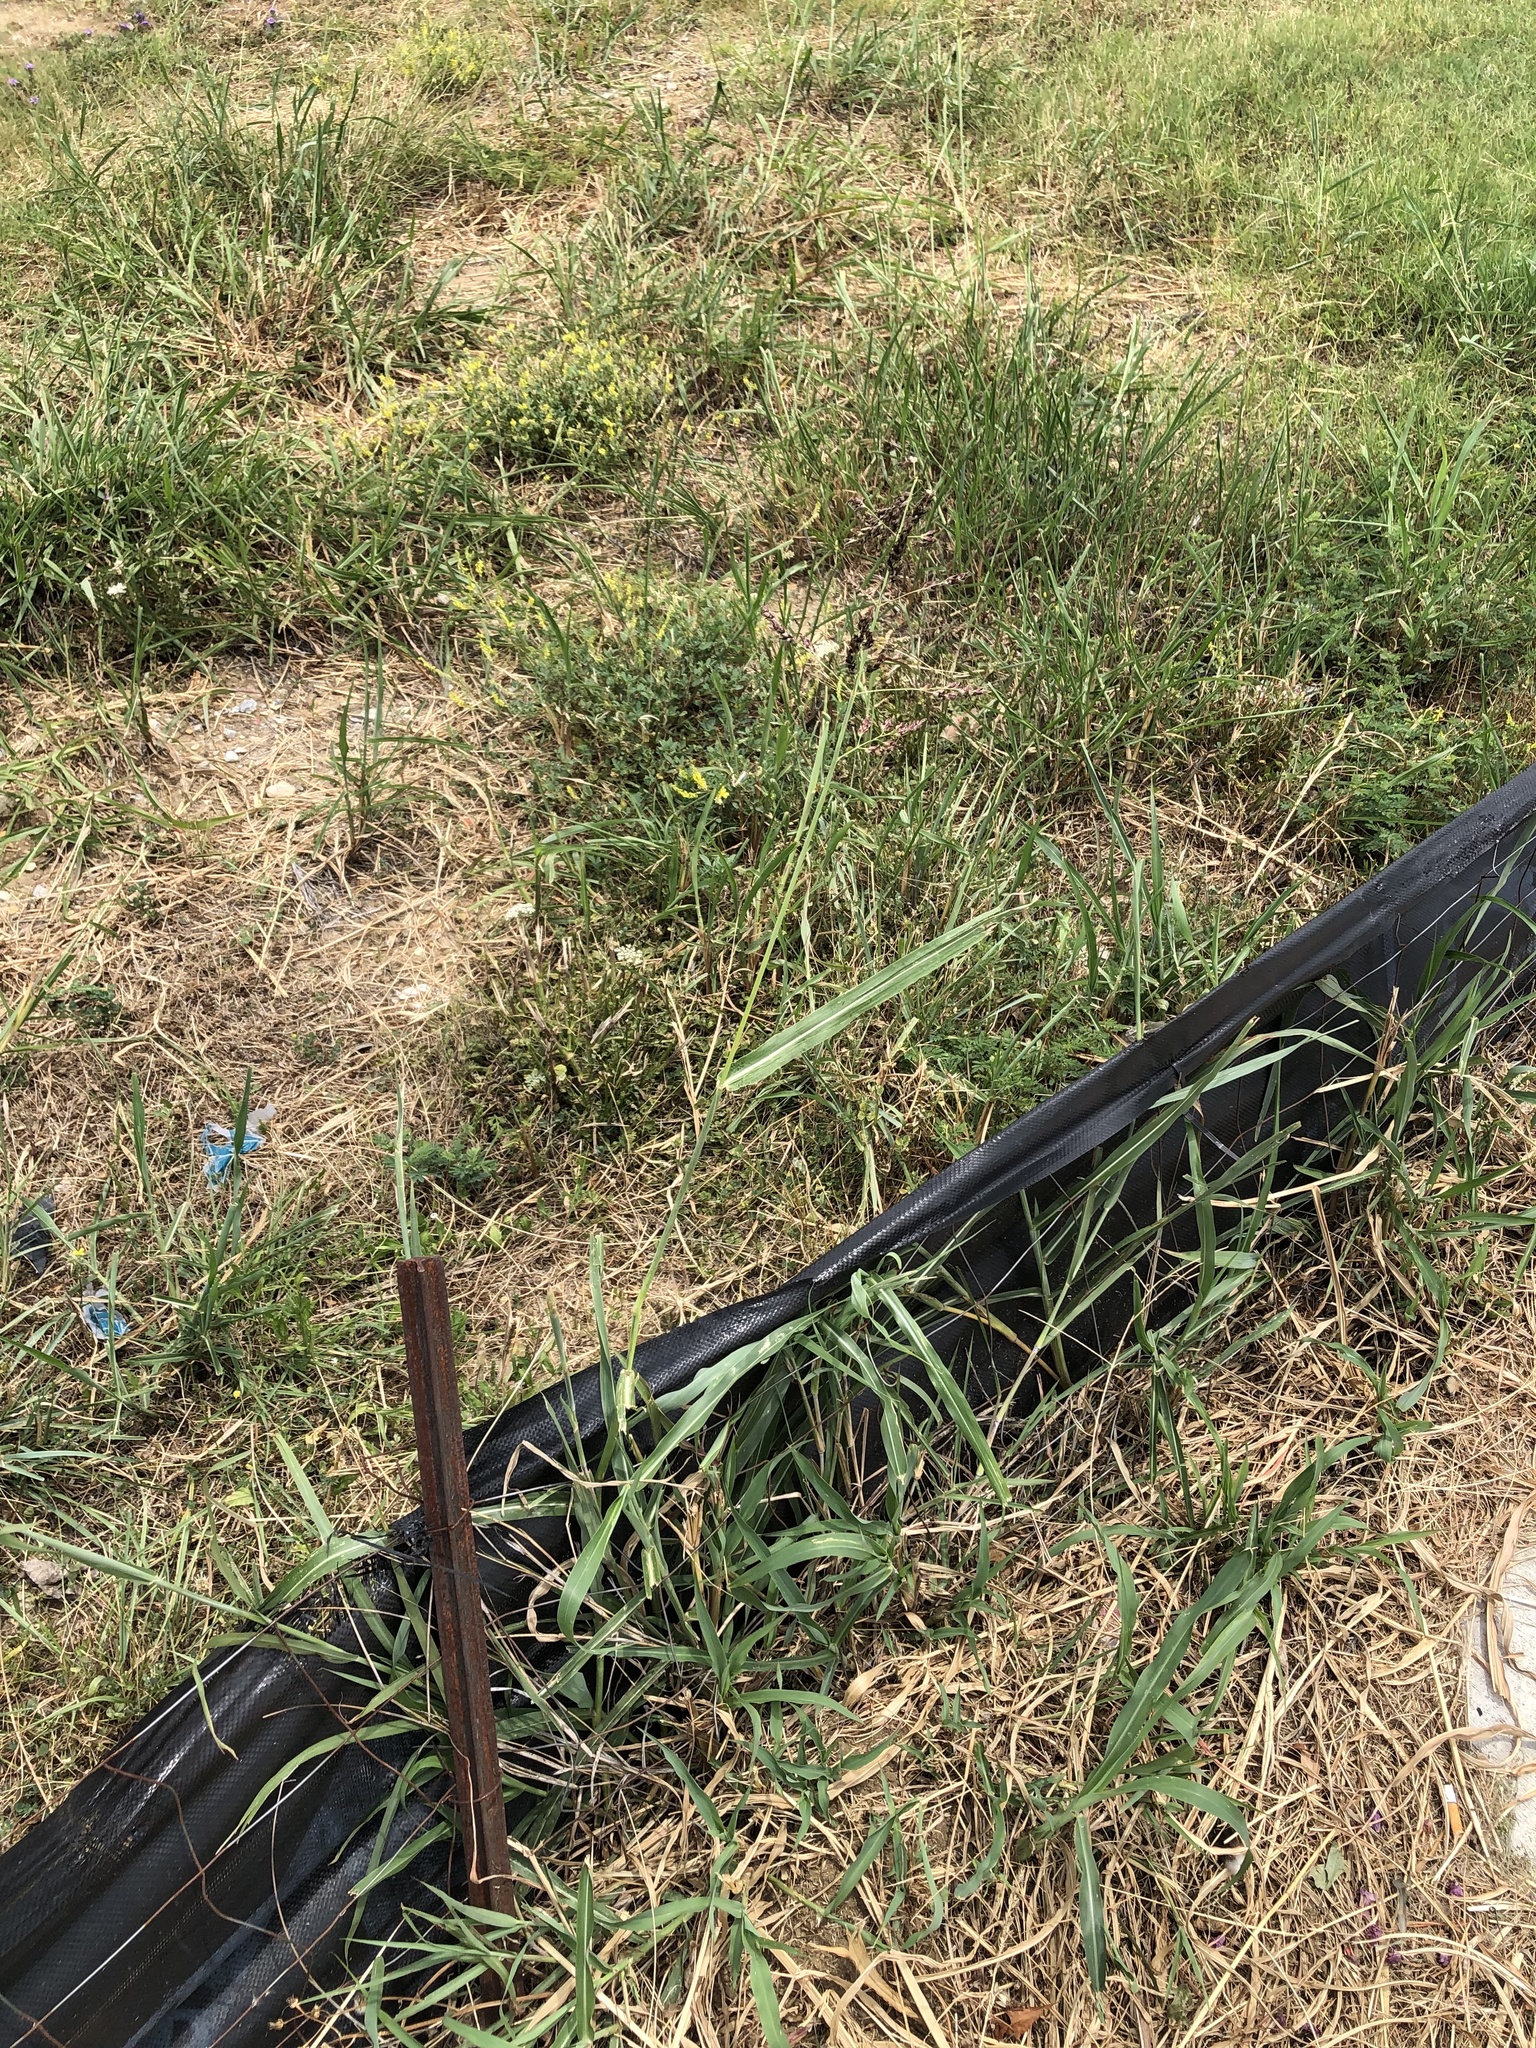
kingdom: Plantae
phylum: Tracheophyta
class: Liliopsida
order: Poales
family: Poaceae
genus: Sorghum
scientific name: Sorghum halepense
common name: Johnson-grass
